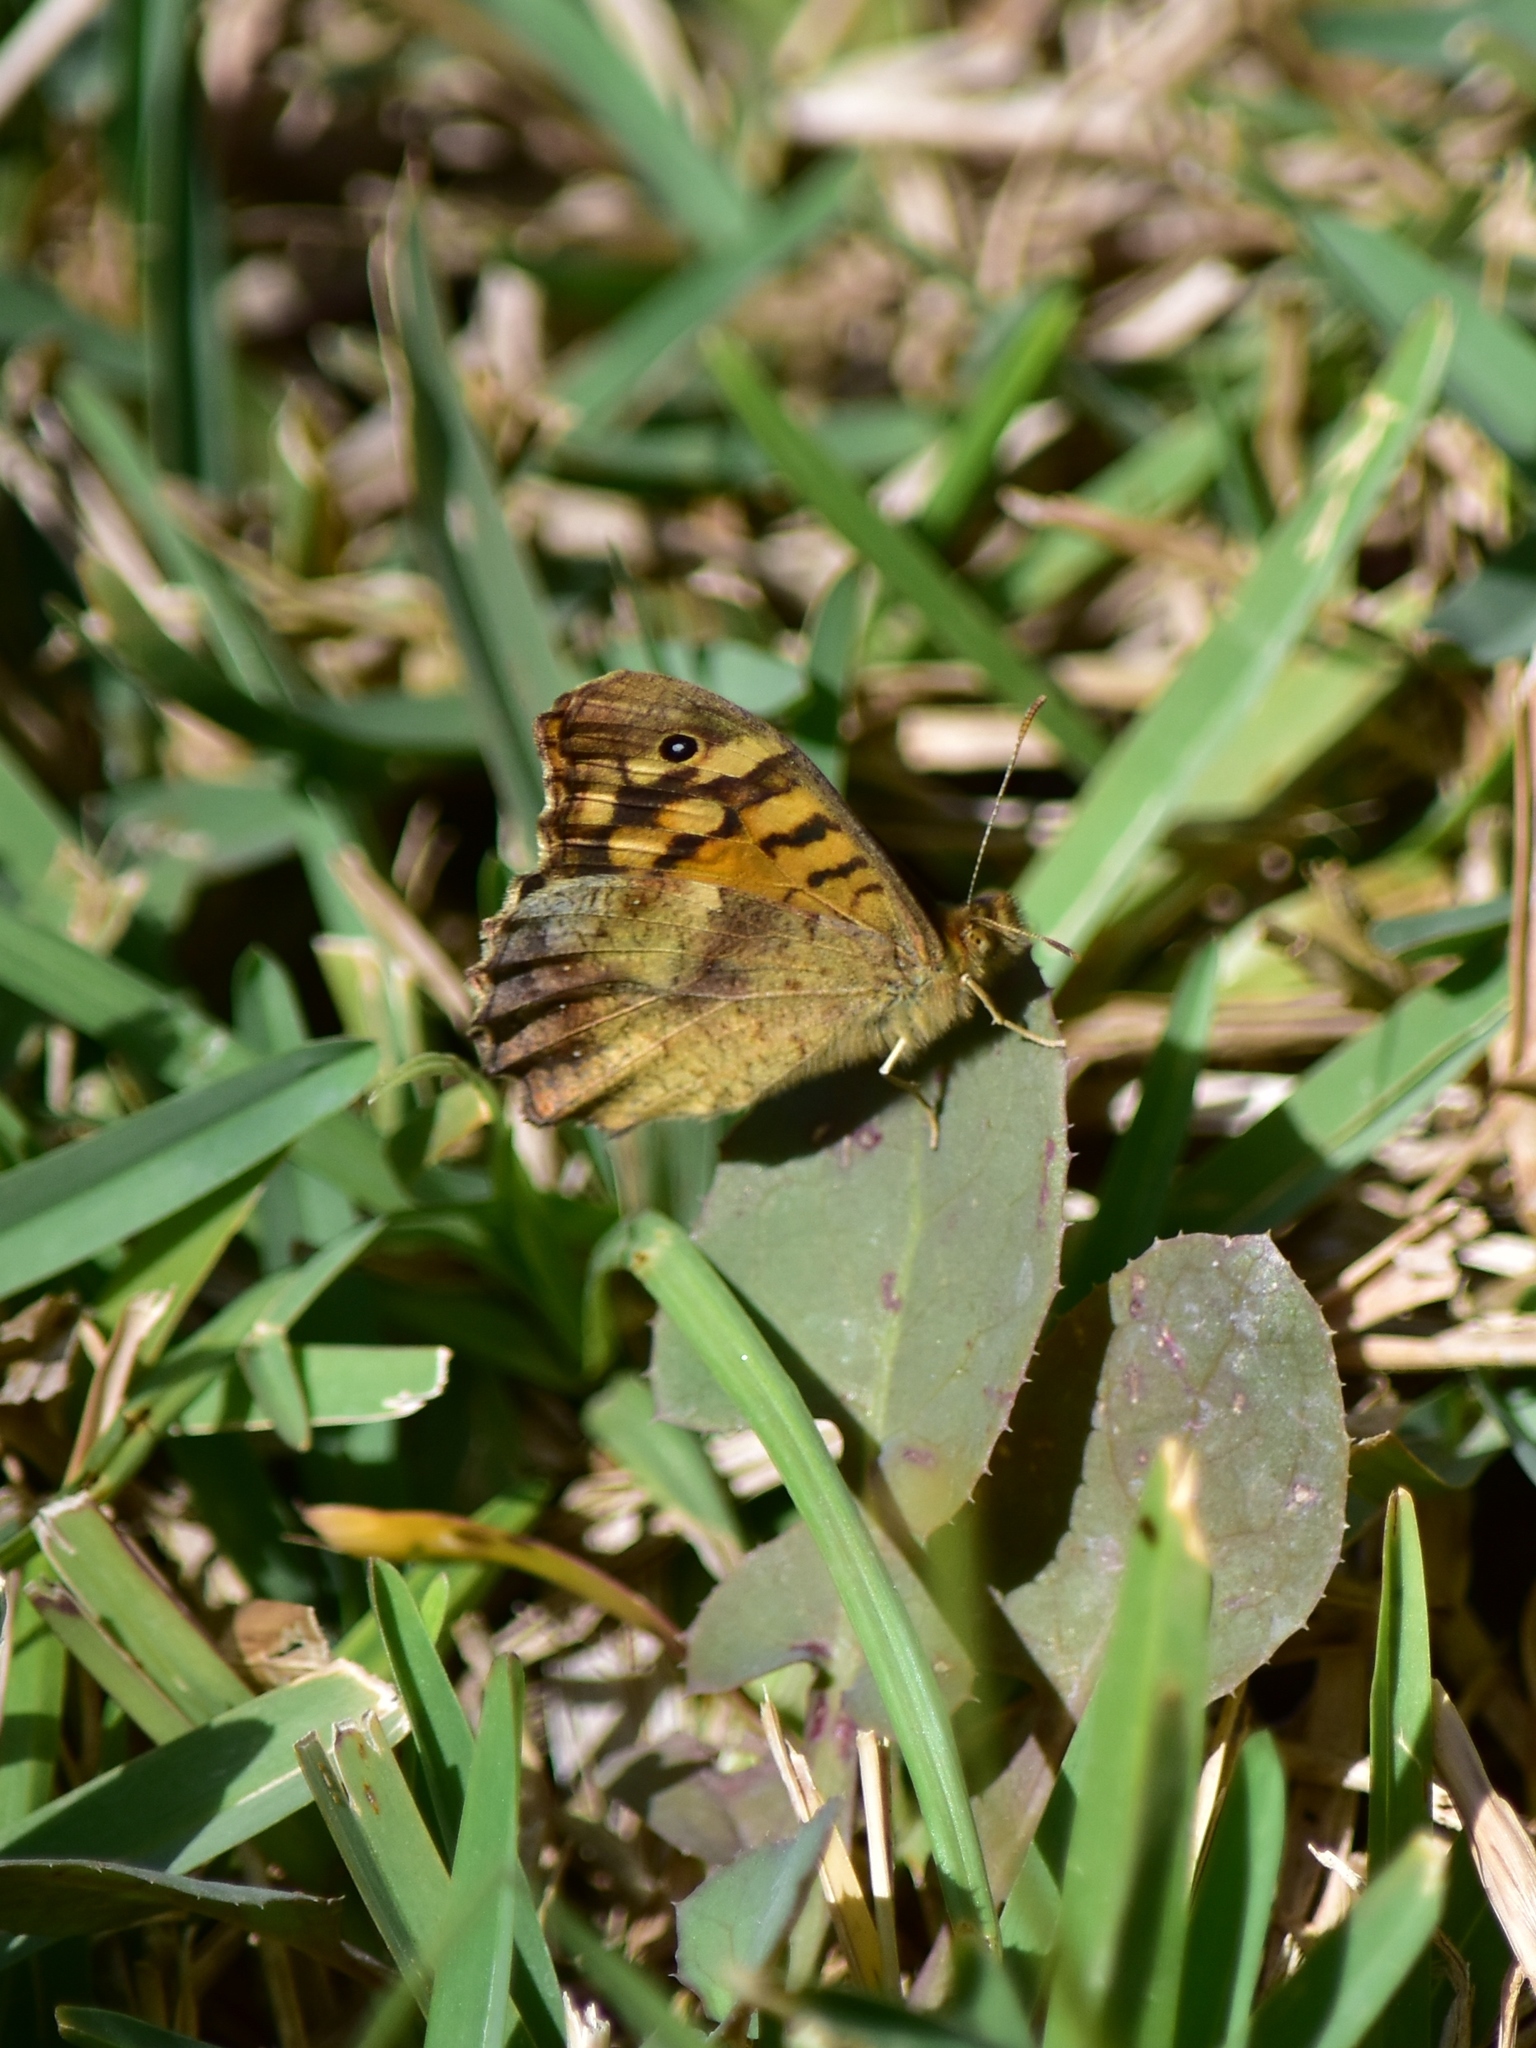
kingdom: Animalia
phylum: Arthropoda
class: Insecta
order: Lepidoptera
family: Nymphalidae
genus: Pararge
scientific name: Pararge aegeria
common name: Speckled wood
